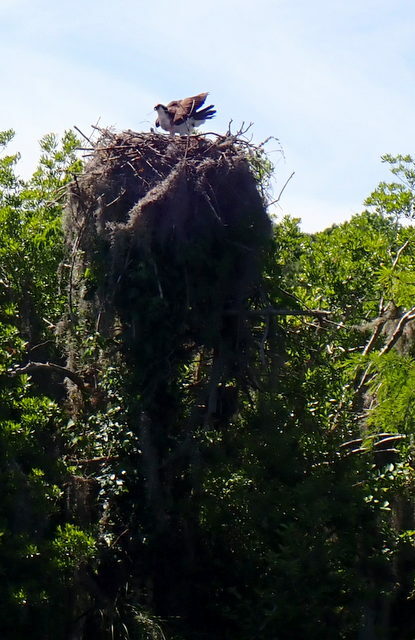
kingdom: Animalia
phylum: Chordata
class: Aves
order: Accipitriformes
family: Pandionidae
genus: Pandion
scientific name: Pandion haliaetus
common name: Osprey
